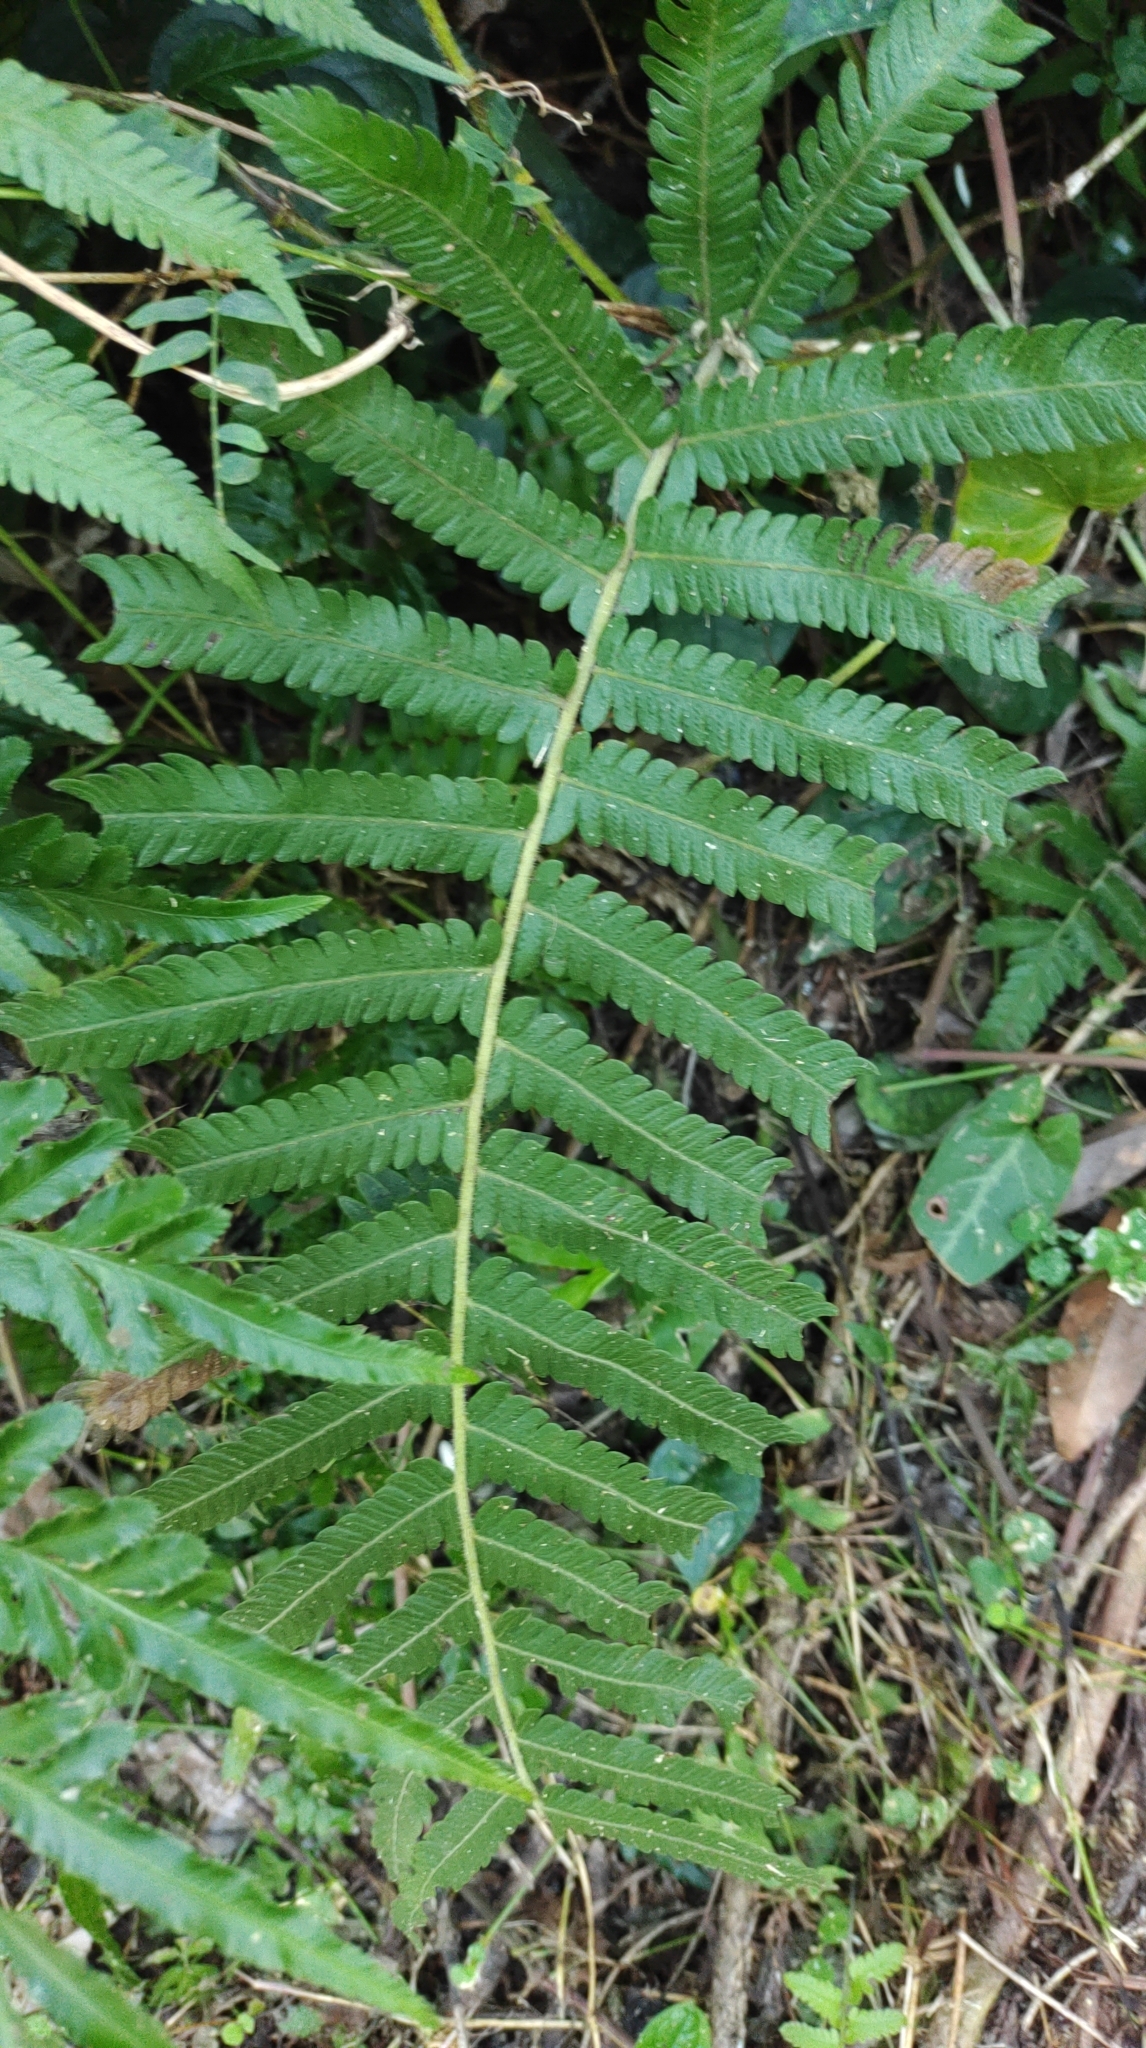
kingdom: Plantae
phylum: Tracheophyta
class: Polypodiopsida
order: Polypodiales
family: Thelypteridaceae
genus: Christella
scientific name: Christella acuminata
